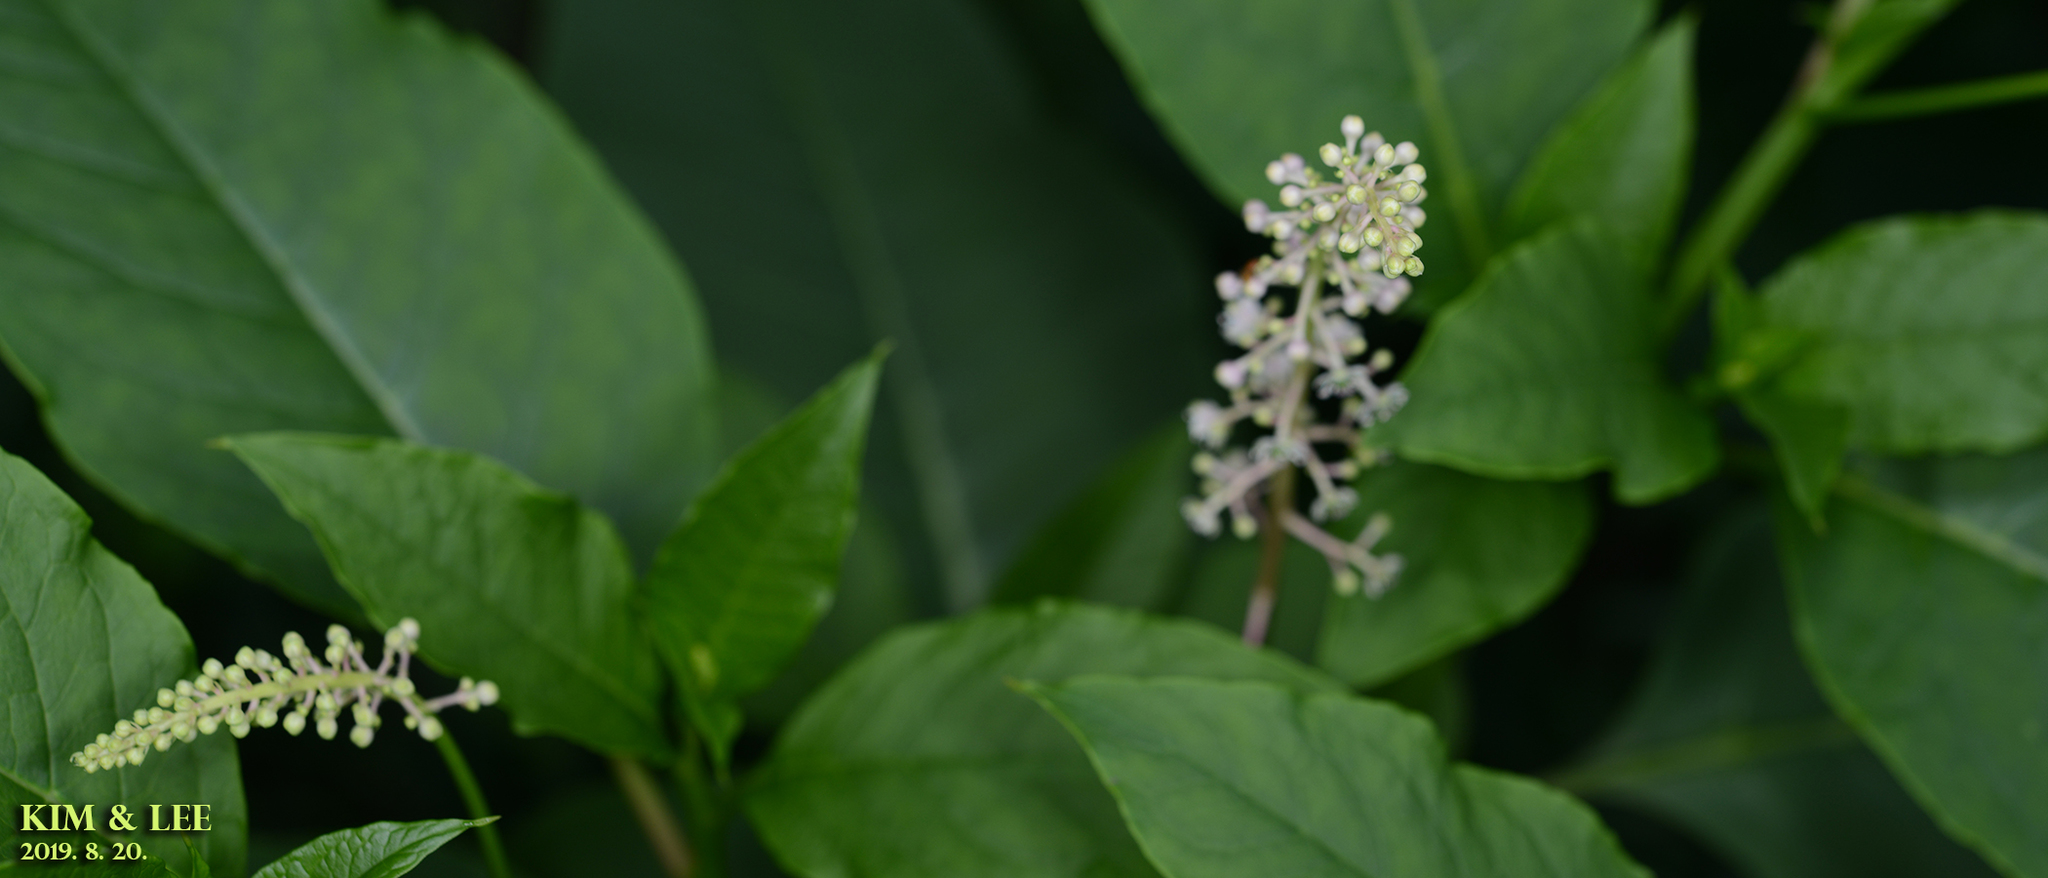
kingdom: Plantae
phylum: Tracheophyta
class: Magnoliopsida
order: Caryophyllales
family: Phytolaccaceae
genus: Phytolacca
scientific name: Phytolacca americana
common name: American pokeweed
